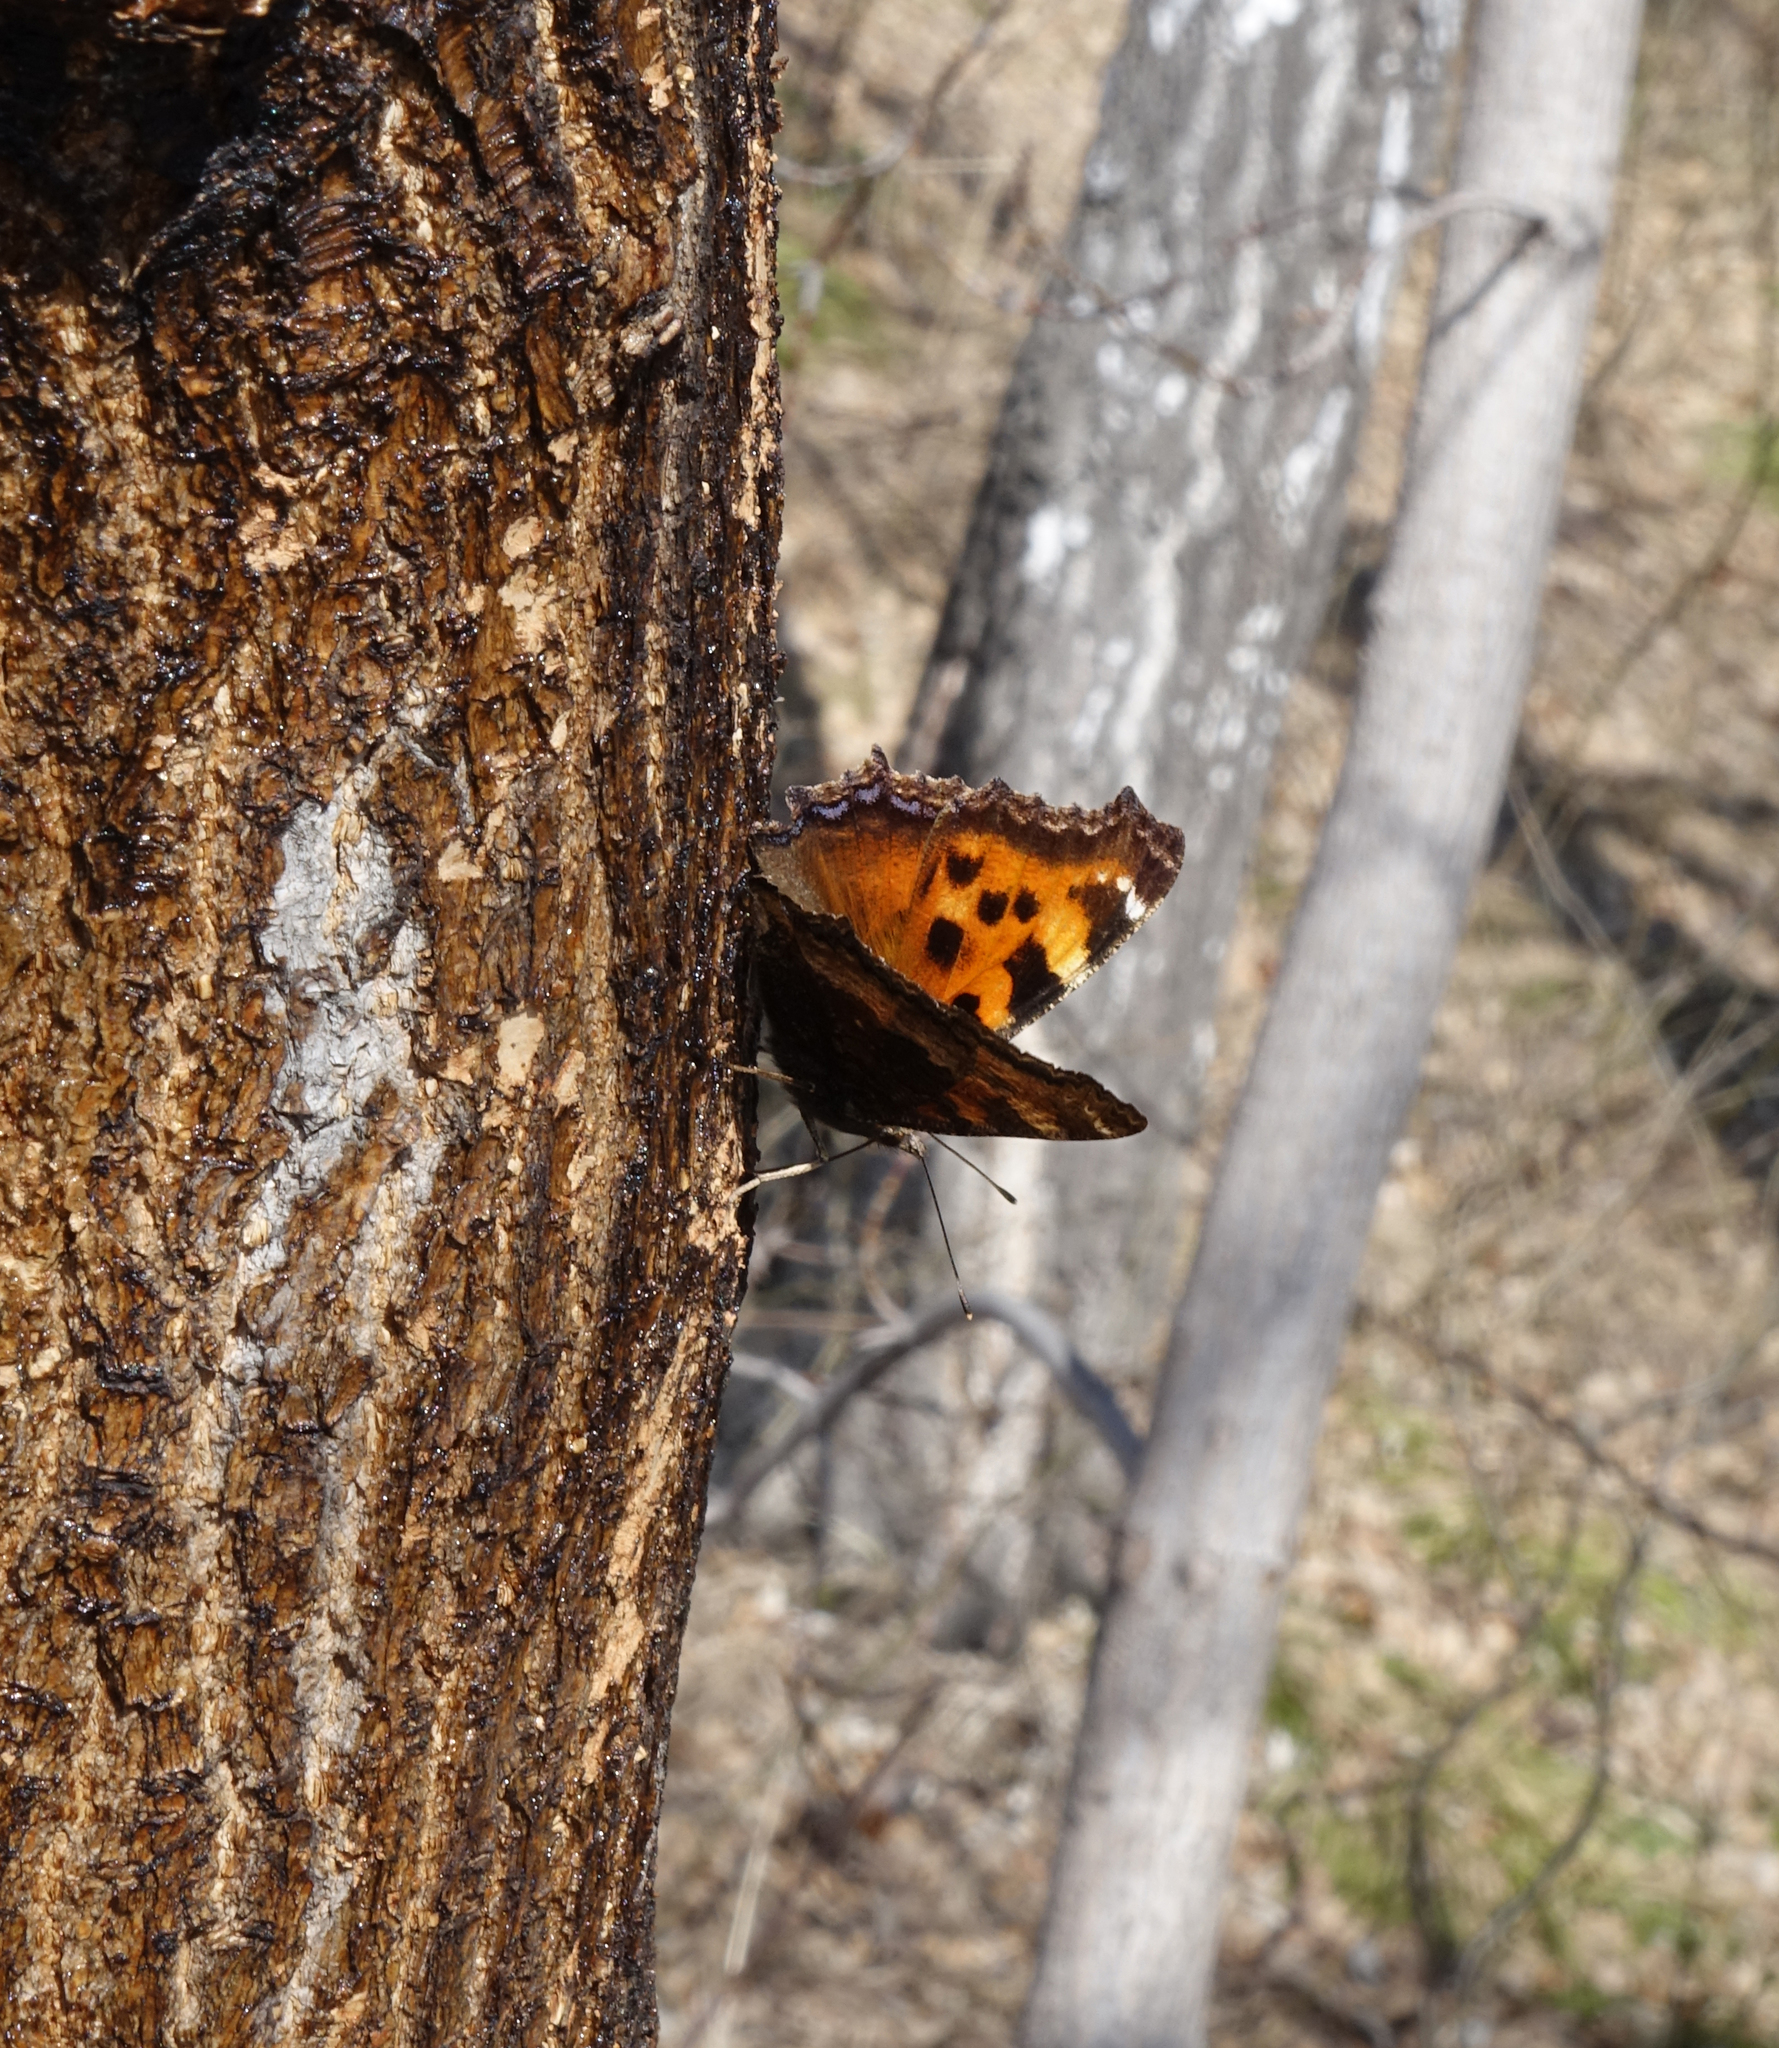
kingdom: Animalia
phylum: Arthropoda
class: Insecta
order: Lepidoptera
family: Nymphalidae
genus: Nymphalis
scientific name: Nymphalis xanthomelas
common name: Scarce tortoiseshell
